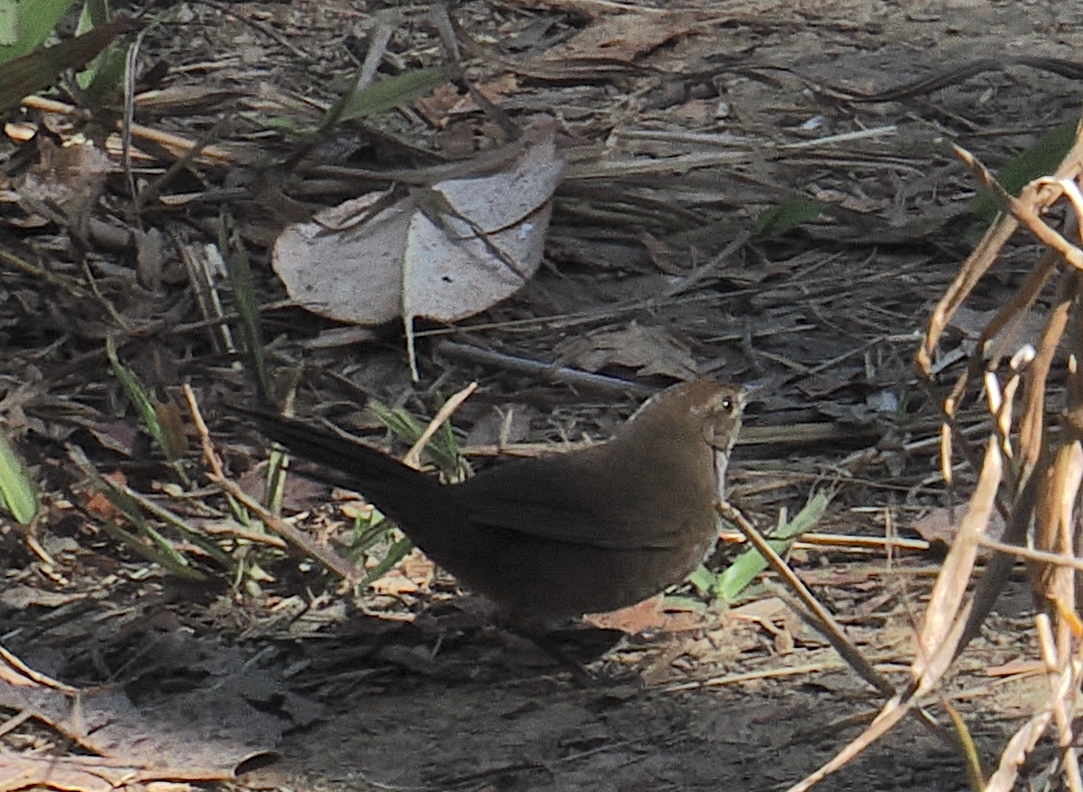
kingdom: Animalia
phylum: Chordata
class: Aves
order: Passeriformes
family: Locustellidae
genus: Locustella
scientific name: Locustella timorensis
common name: Timor bush warbler
